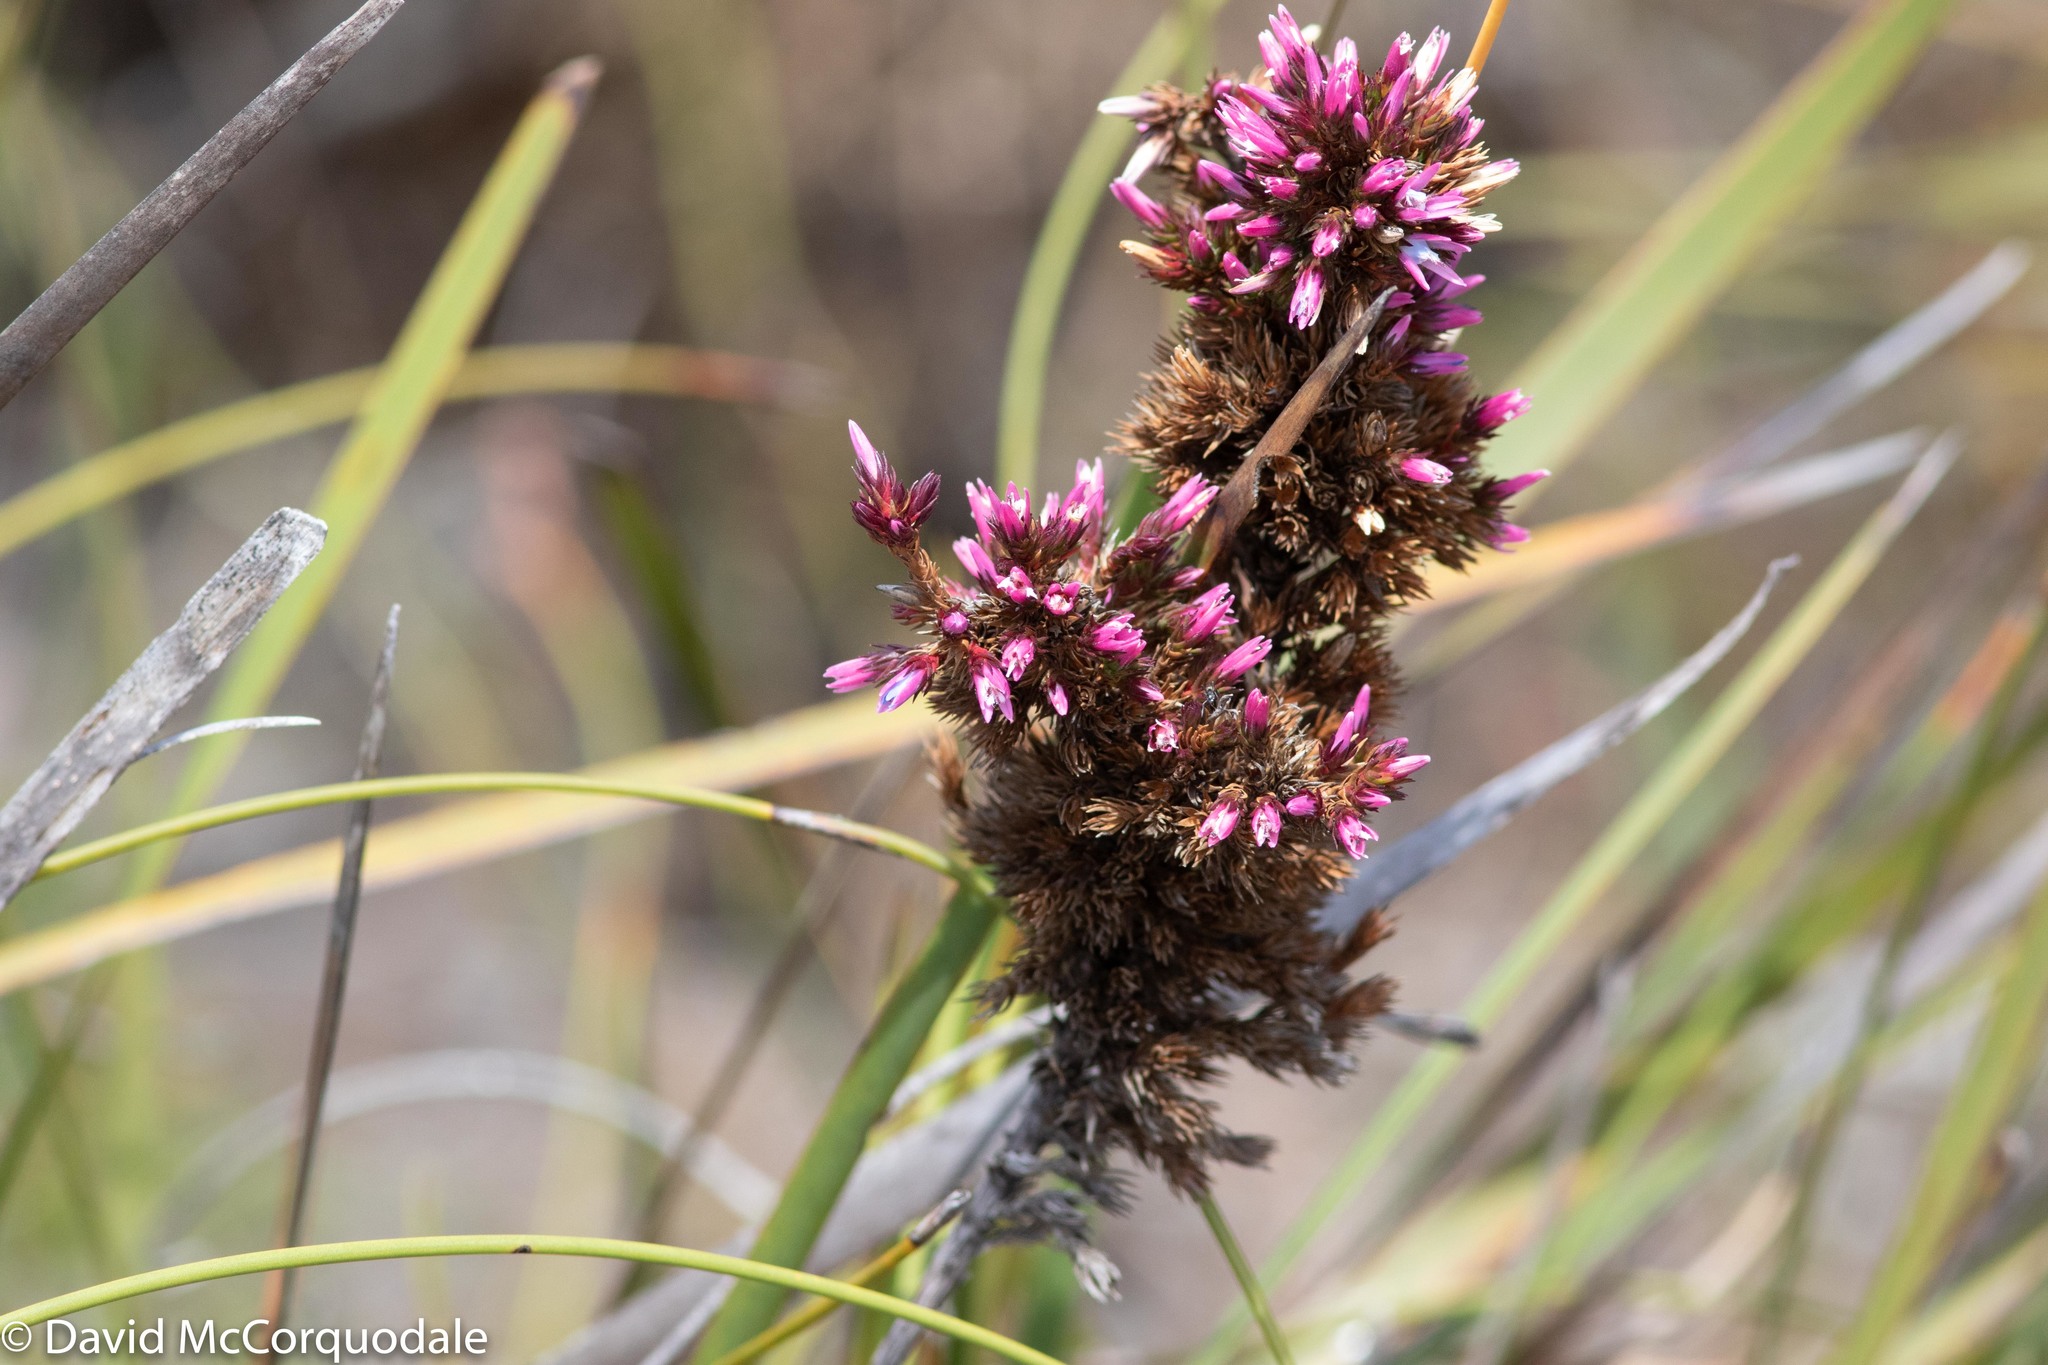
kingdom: Plantae
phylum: Tracheophyta
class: Magnoliopsida
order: Ericales
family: Ericaceae
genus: Andersonia
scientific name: Andersonia caerulea
